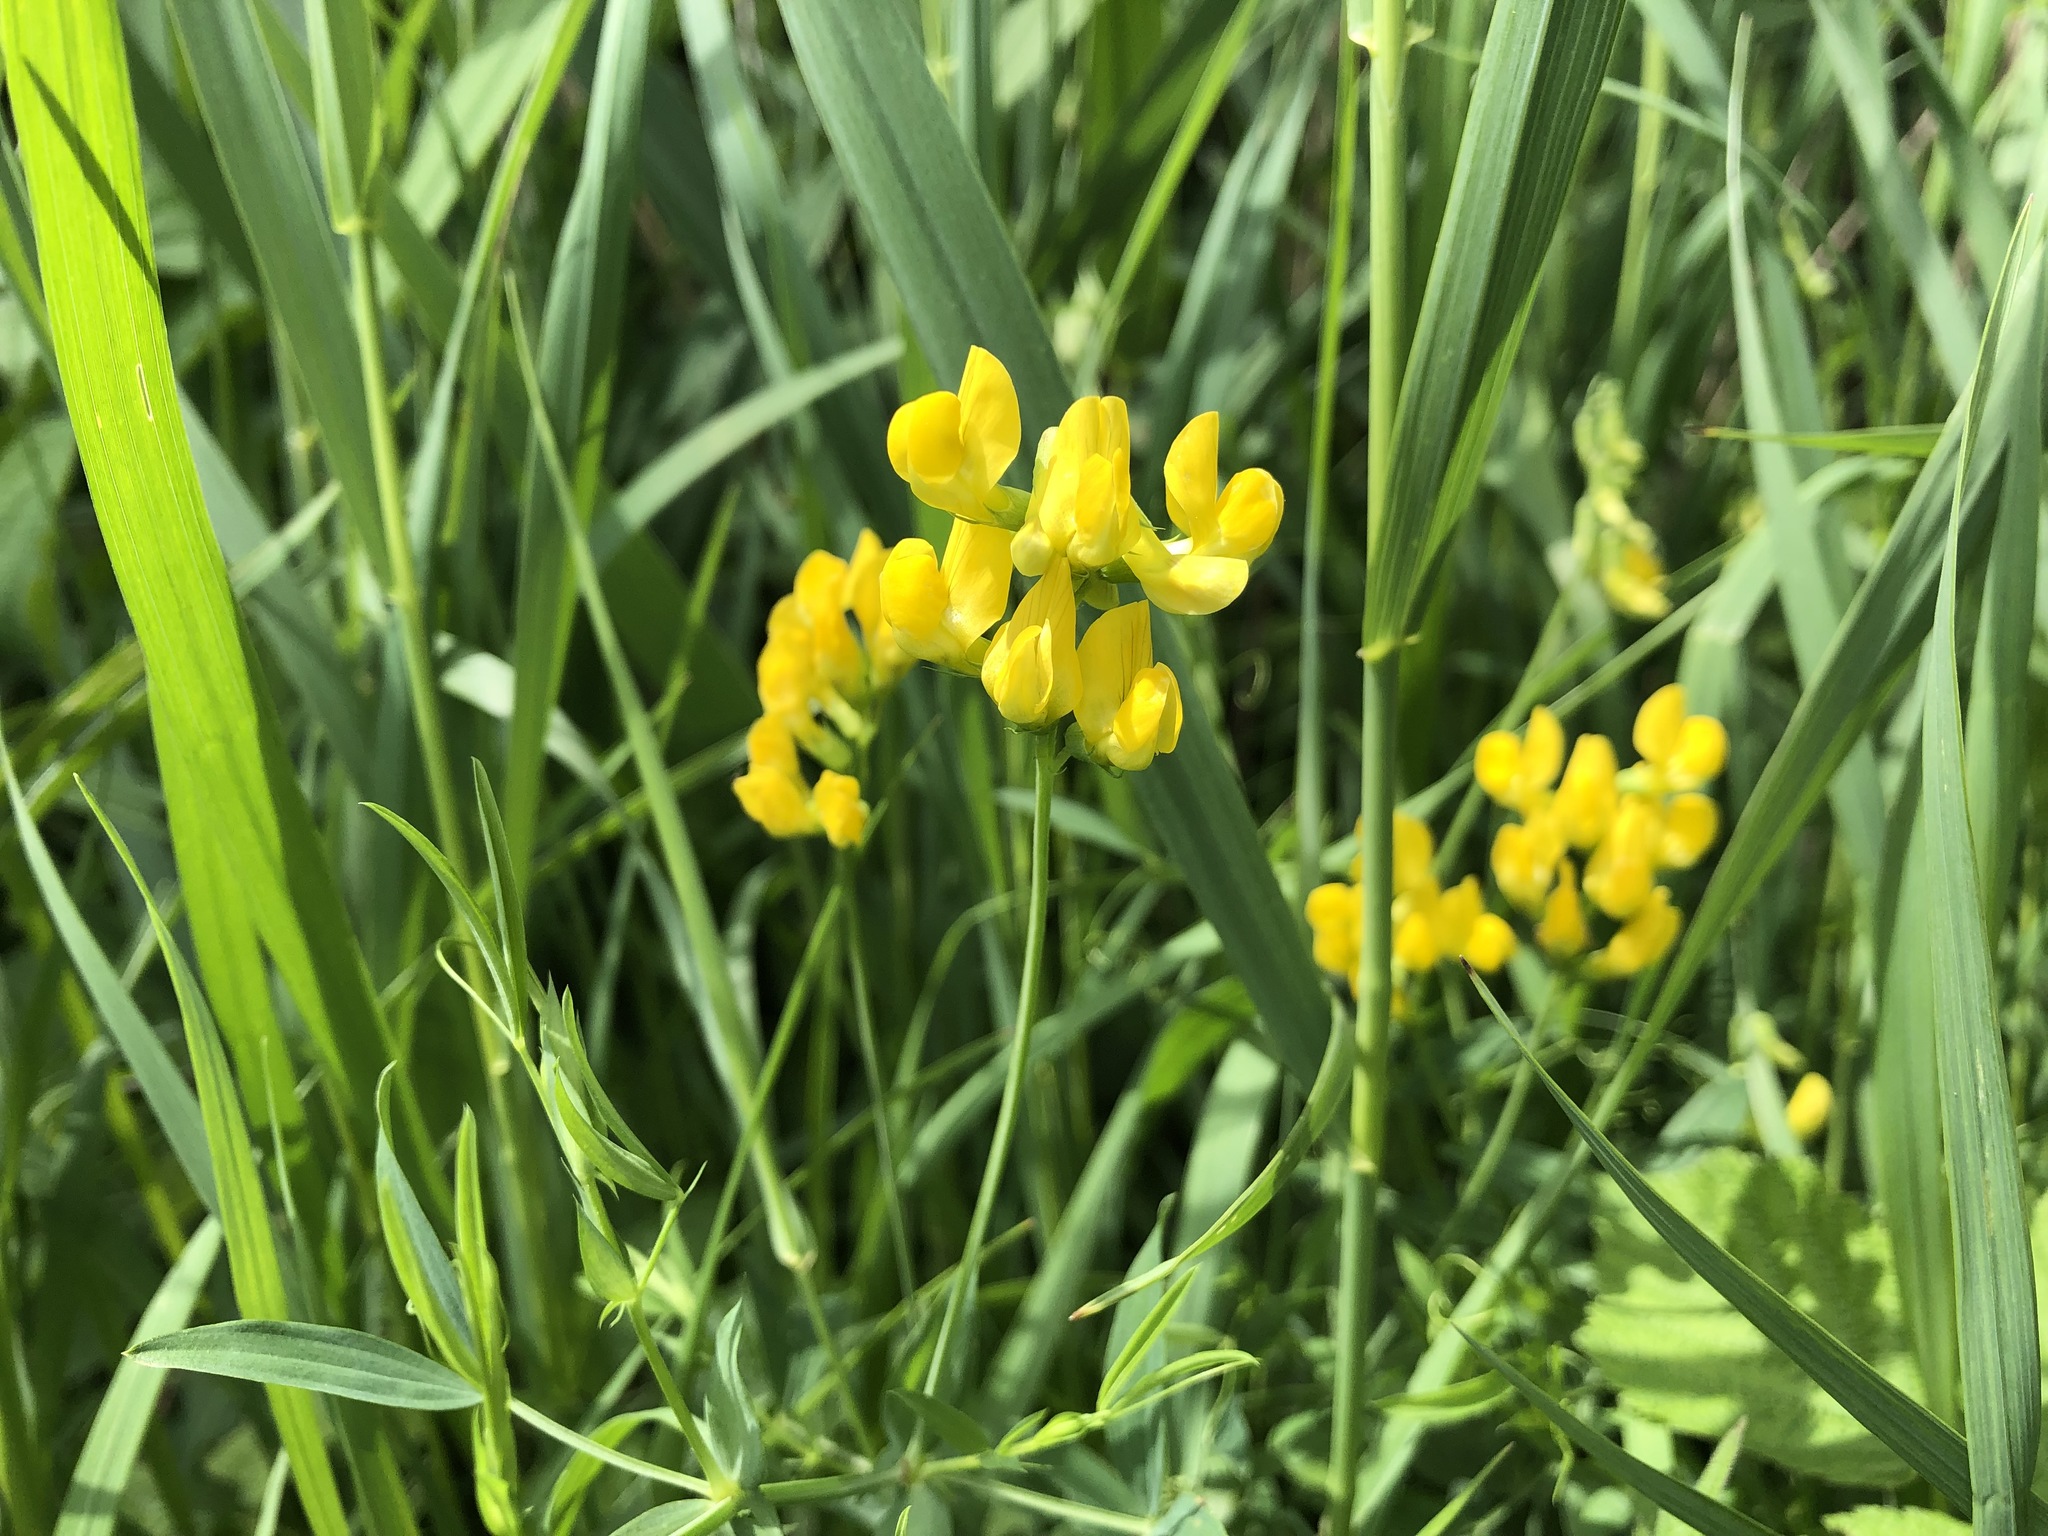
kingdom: Plantae
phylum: Tracheophyta
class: Magnoliopsida
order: Fabales
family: Fabaceae
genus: Lathyrus
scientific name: Lathyrus pratensis
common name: Meadow vetchling
